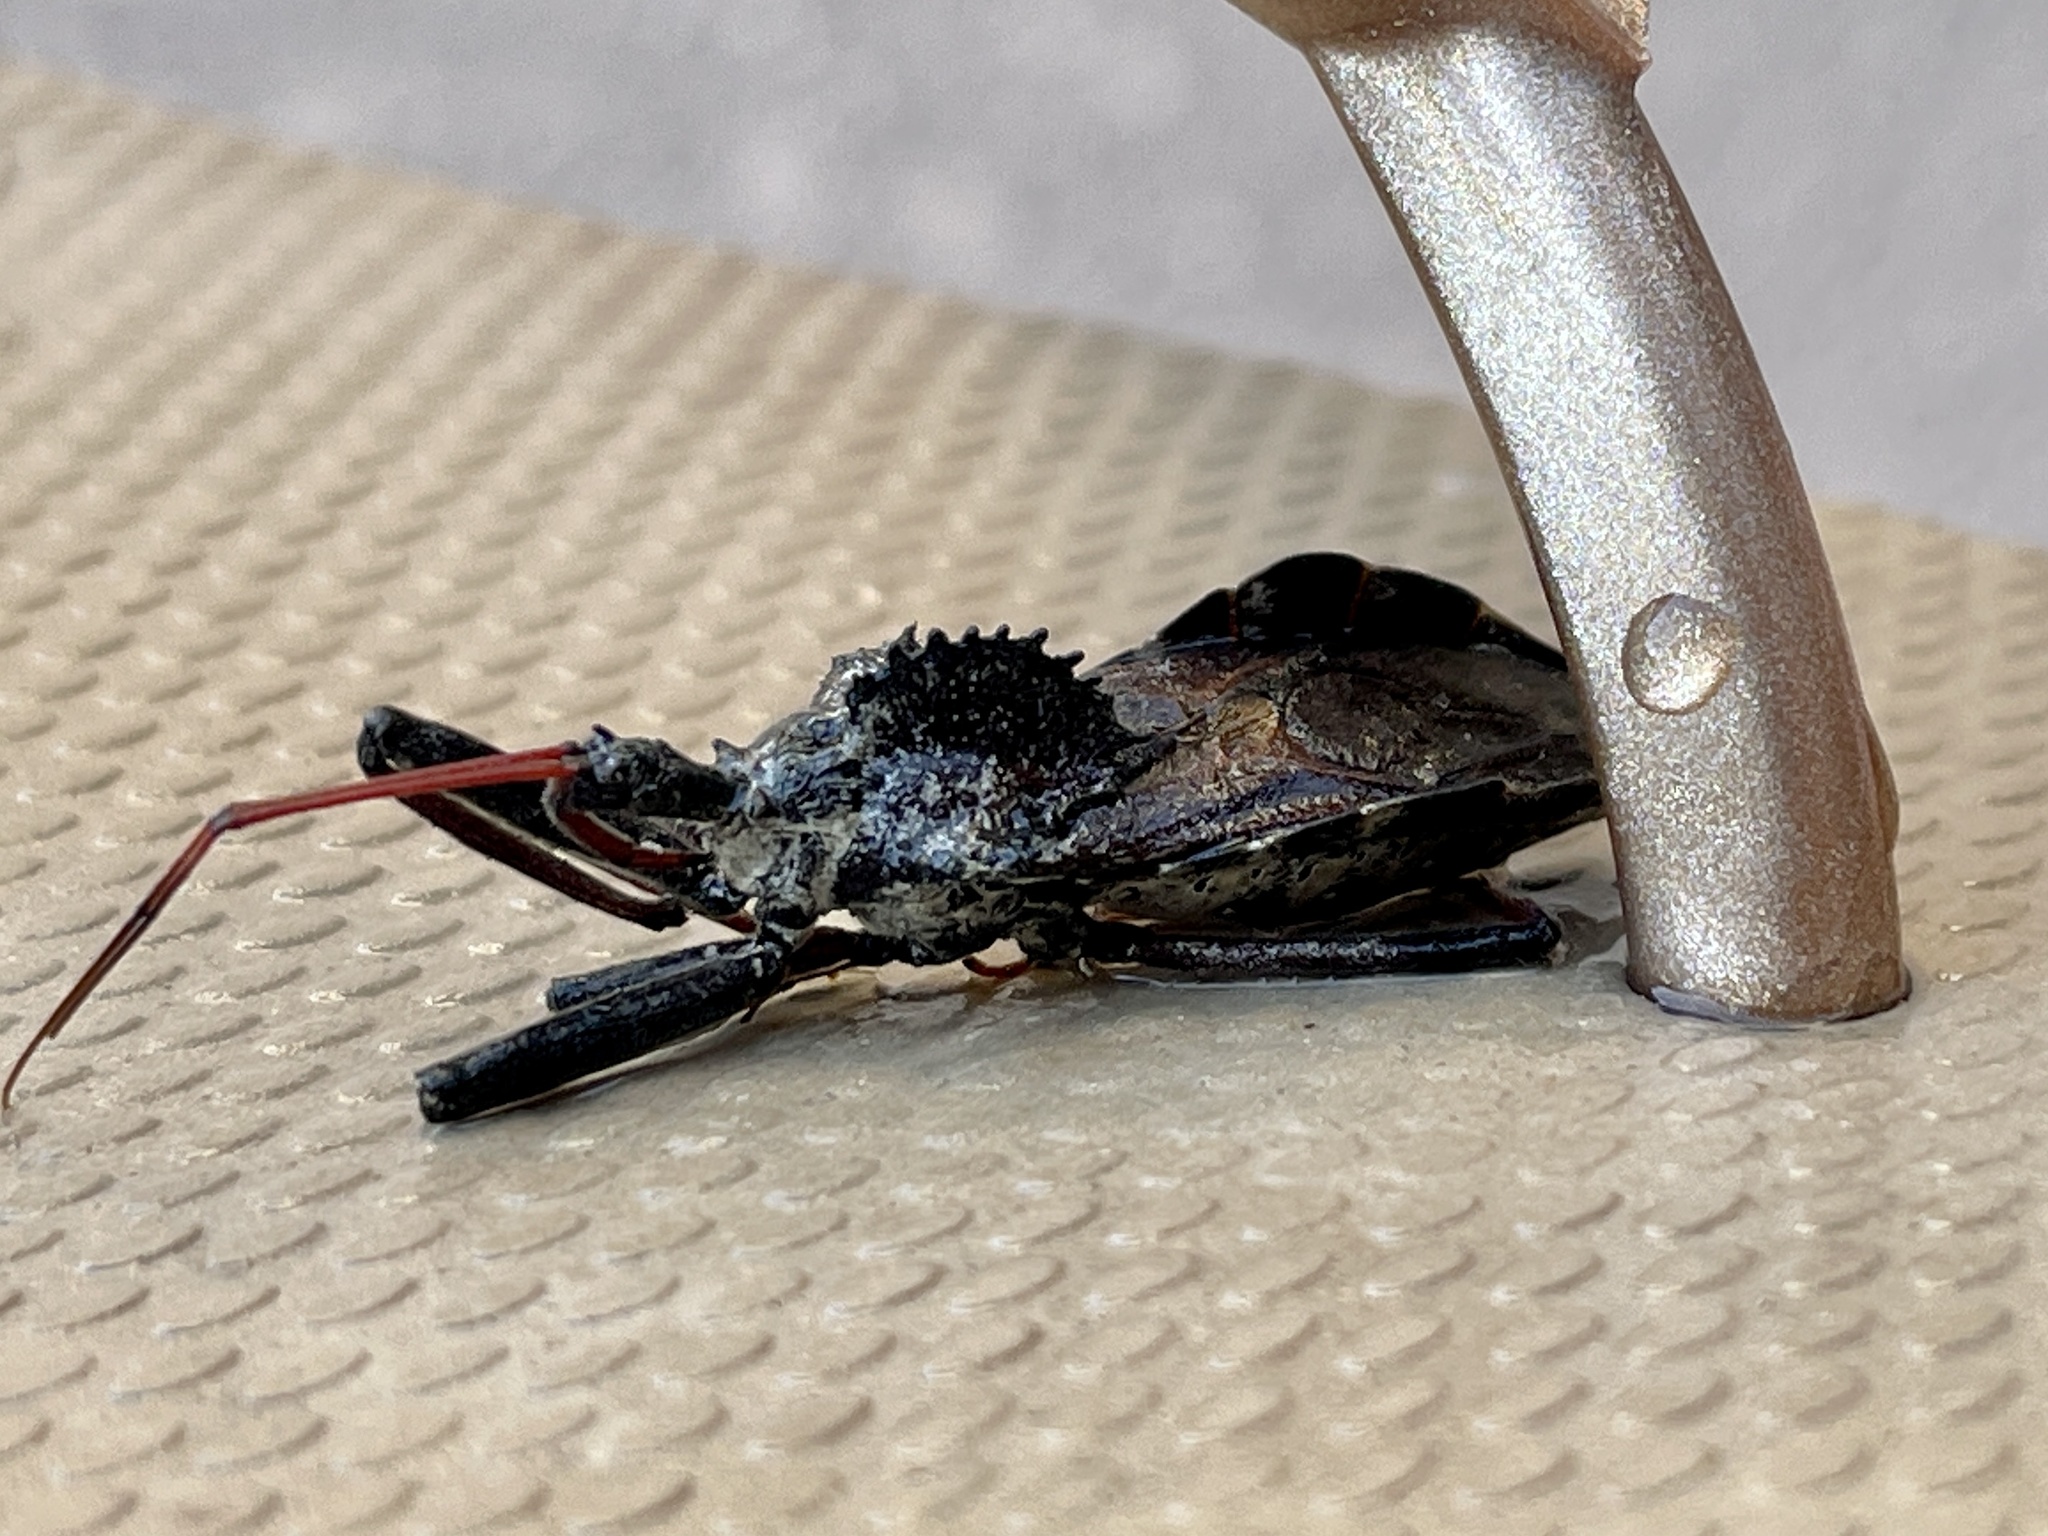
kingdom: Animalia
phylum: Arthropoda
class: Insecta
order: Hemiptera
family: Reduviidae
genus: Arilus
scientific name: Arilus cristatus
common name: North american wheel bug
